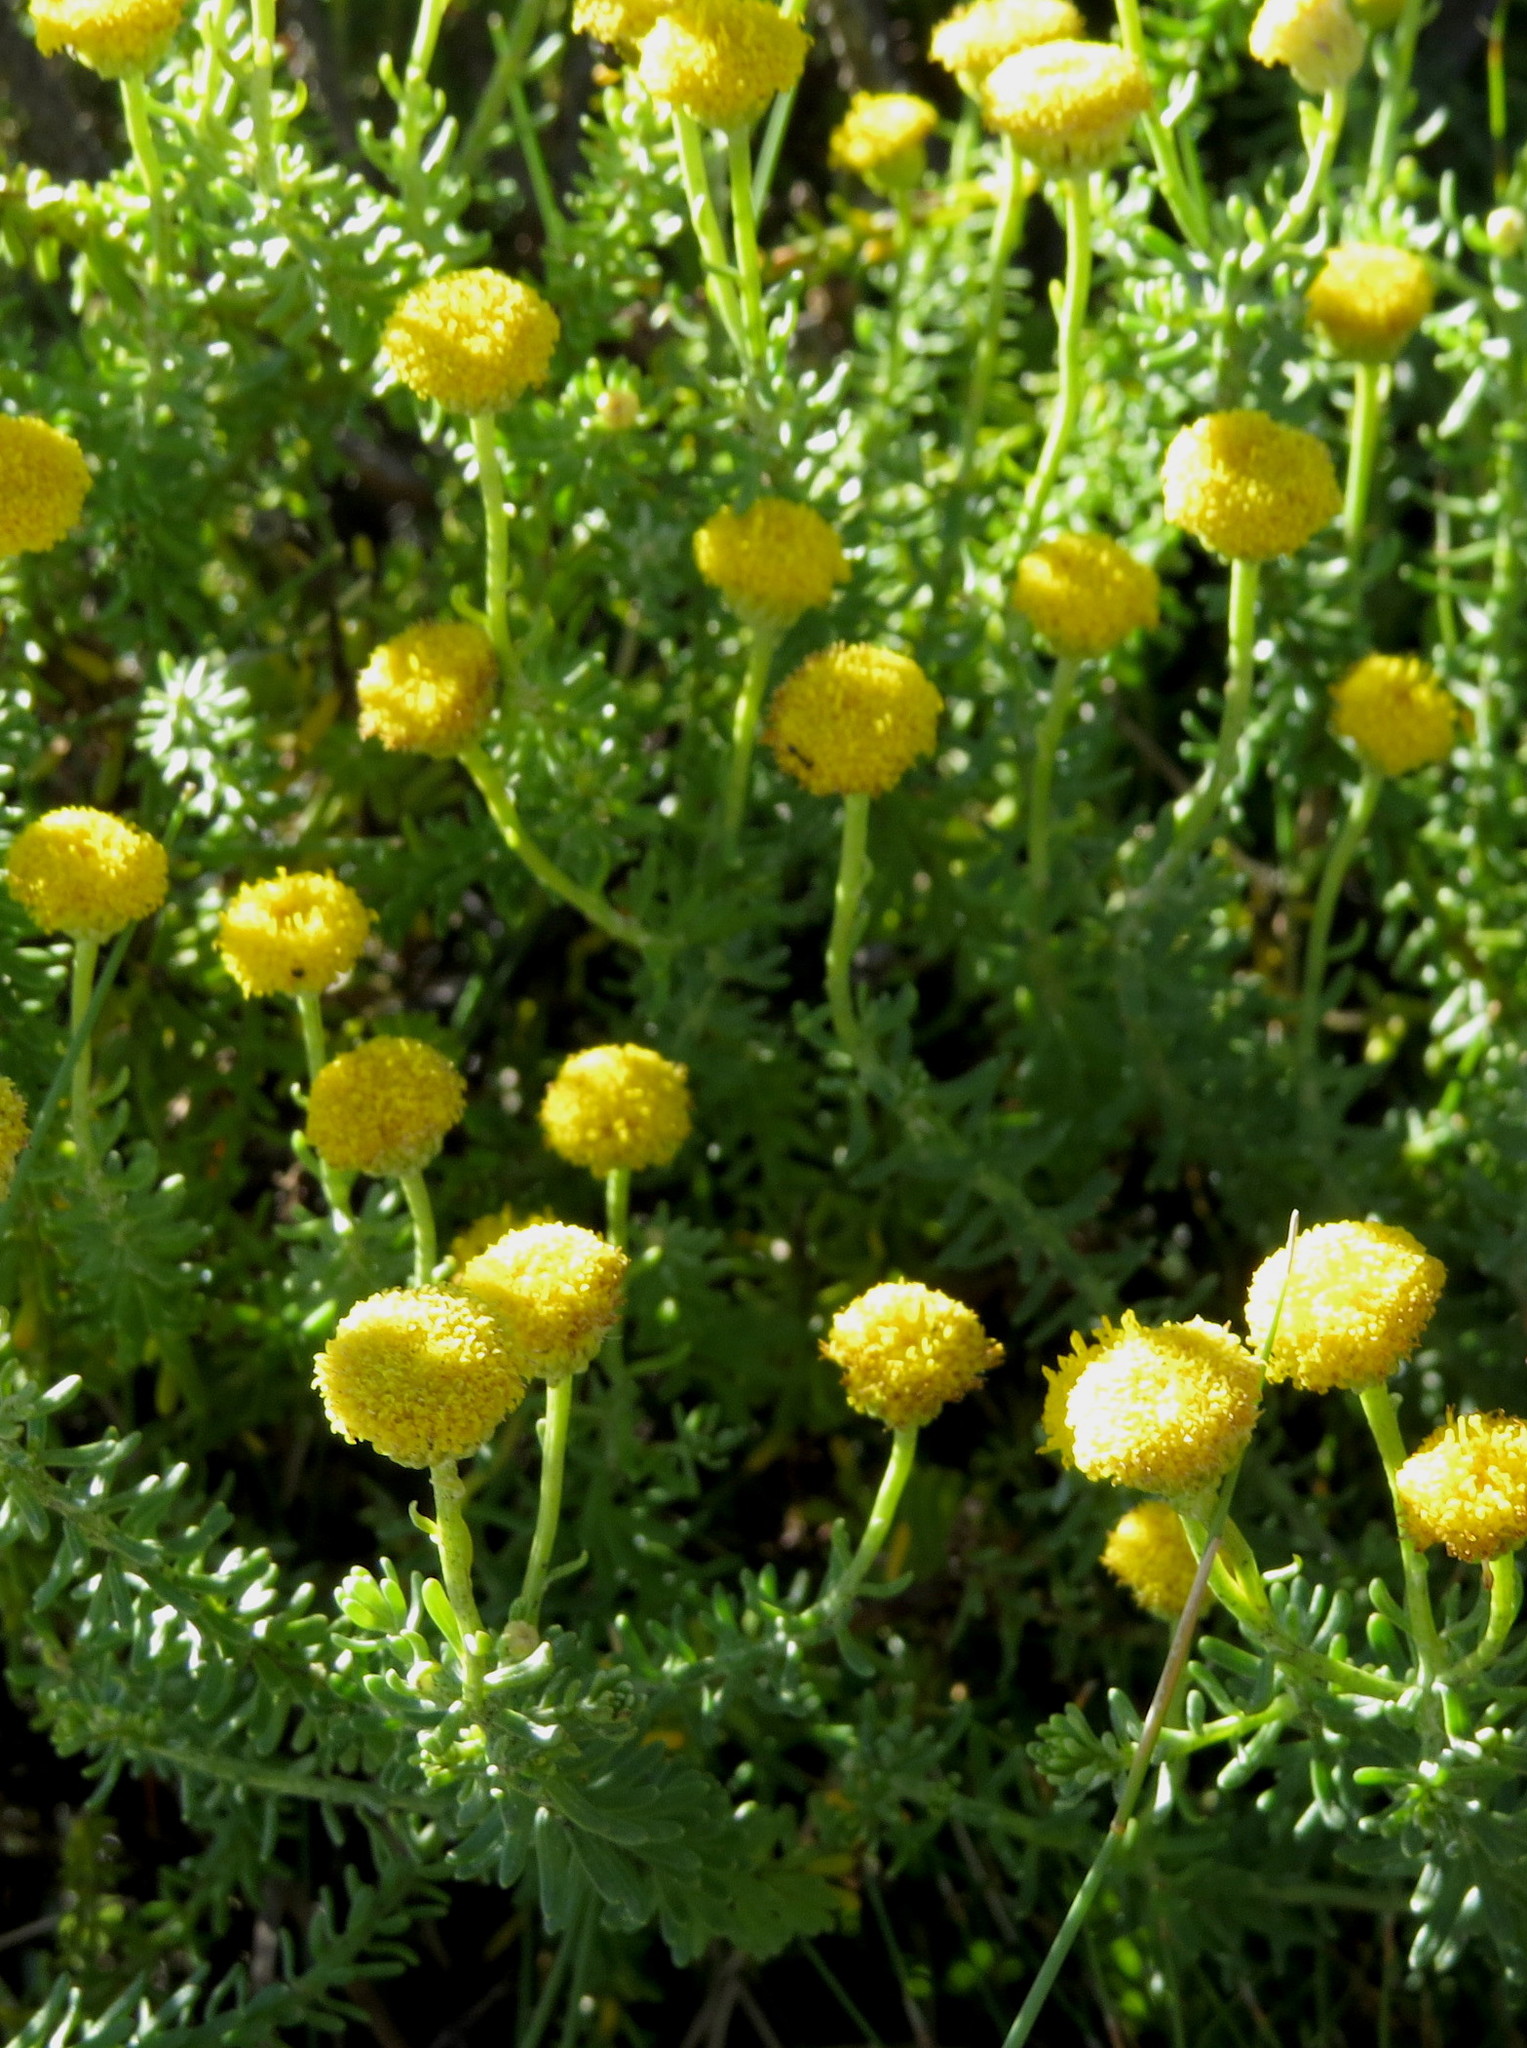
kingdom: Plantae
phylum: Tracheophyta
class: Magnoliopsida
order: Asterales
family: Asteraceae
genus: Chrysocoma
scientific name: Chrysocoma cernua
